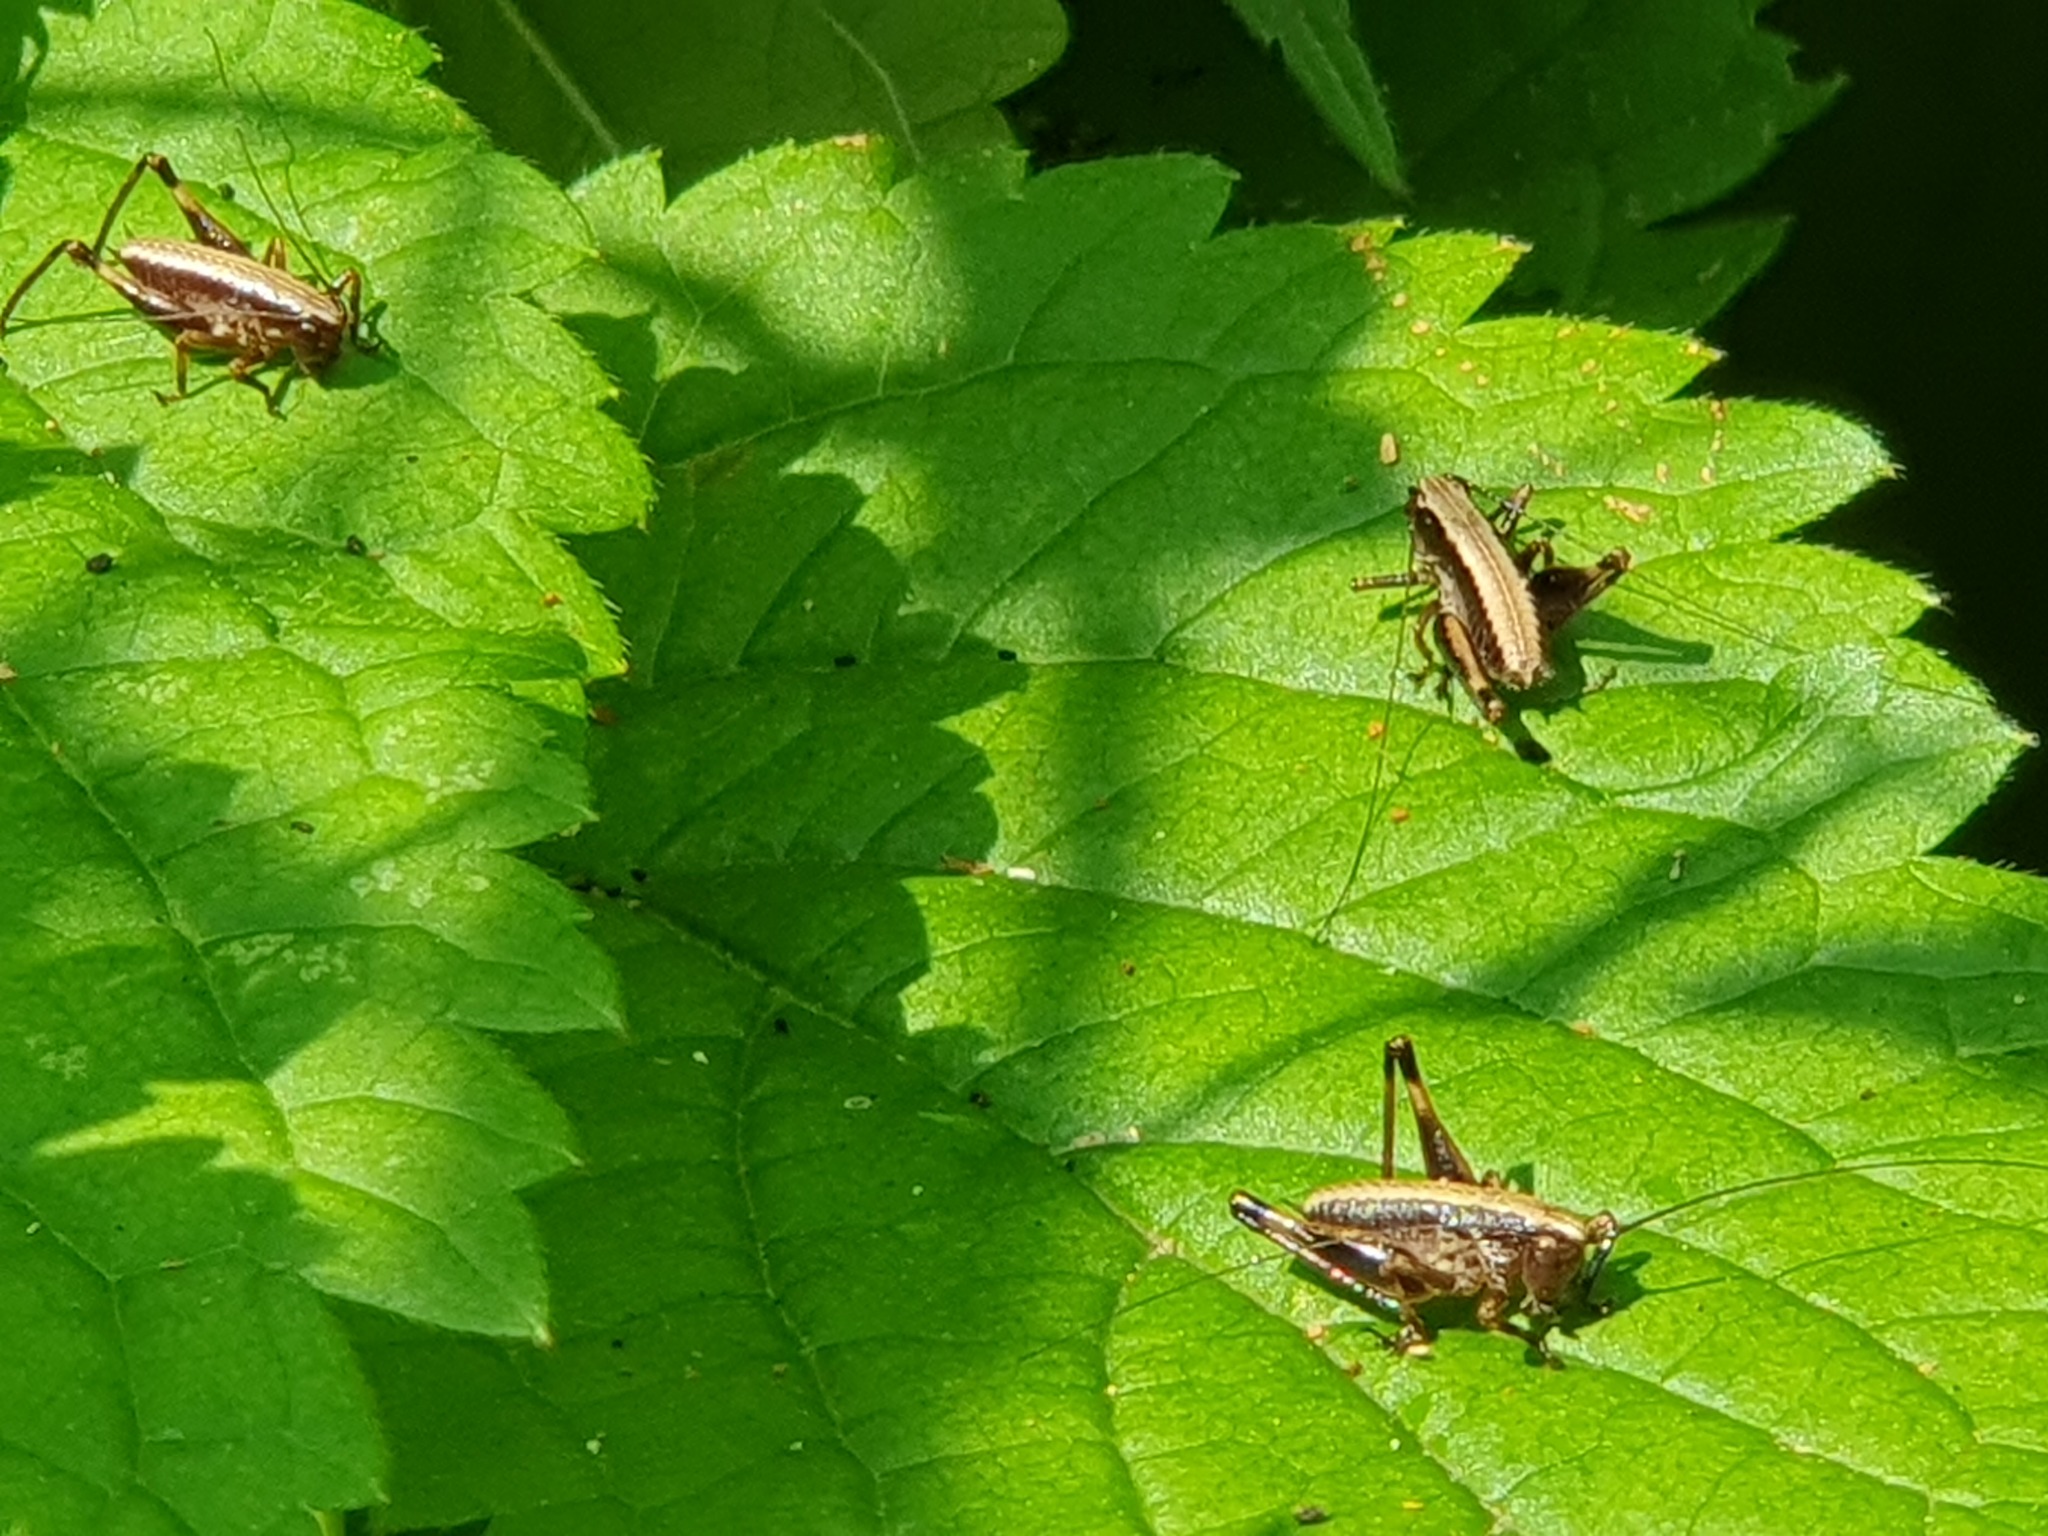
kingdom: Animalia
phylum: Arthropoda
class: Insecta
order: Orthoptera
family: Tettigoniidae
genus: Pholidoptera
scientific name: Pholidoptera griseoaptera
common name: Dark bush-cricket
